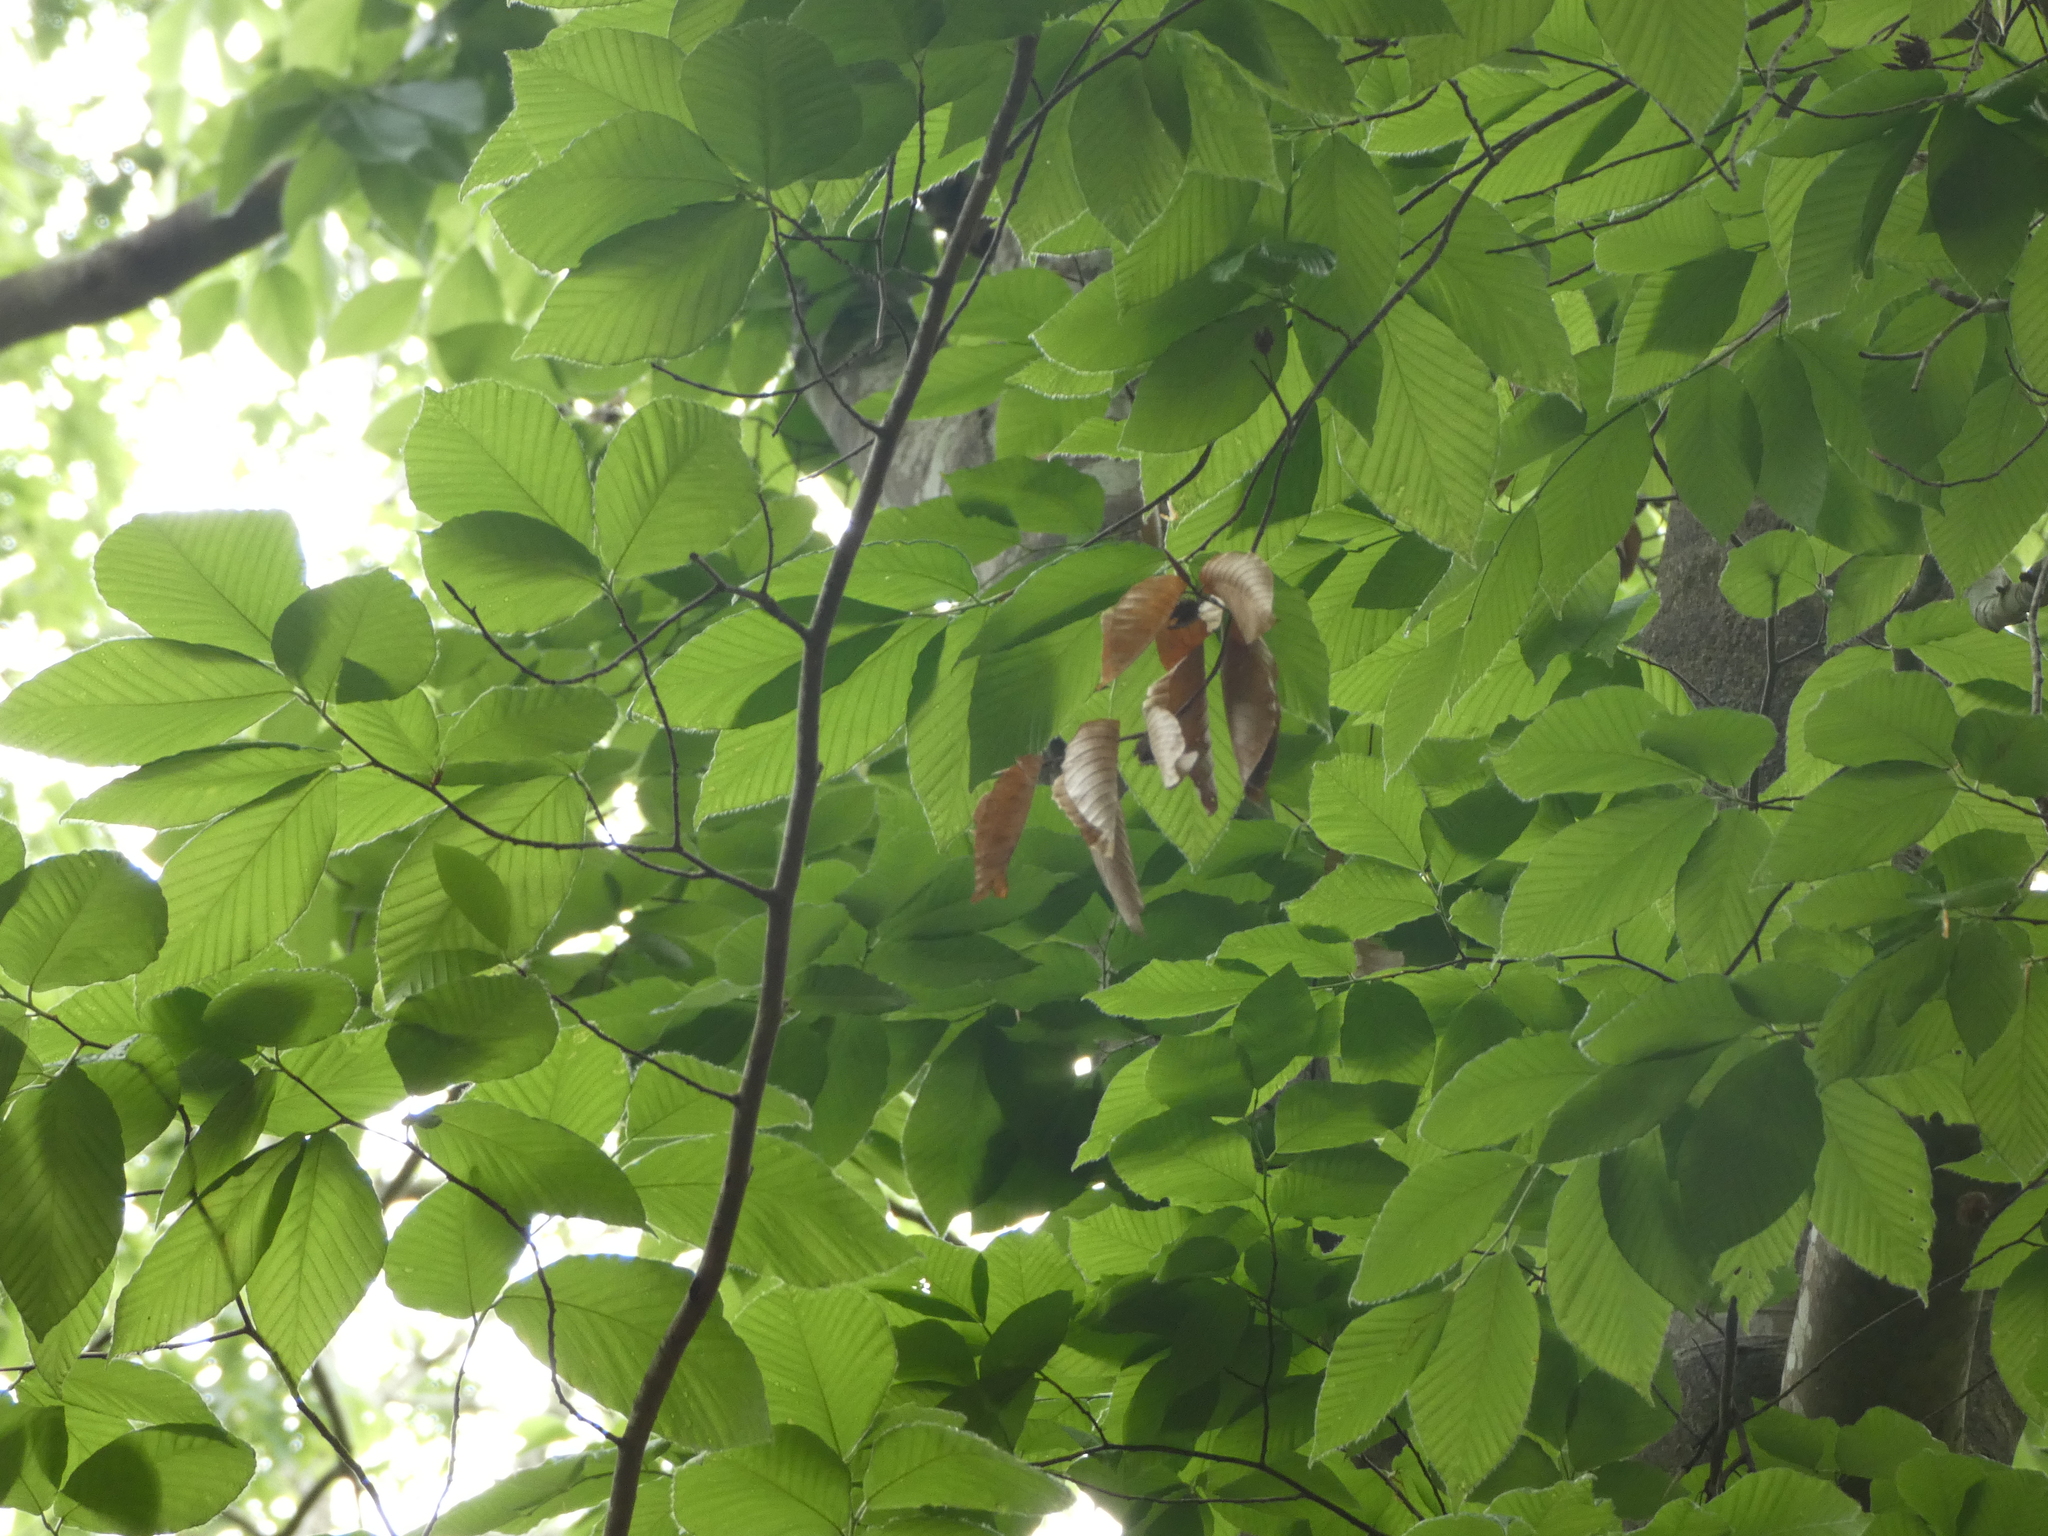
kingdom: Plantae
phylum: Tracheophyta
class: Magnoliopsida
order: Fagales
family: Fagaceae
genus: Fagus
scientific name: Fagus grandifolia
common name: American beech
